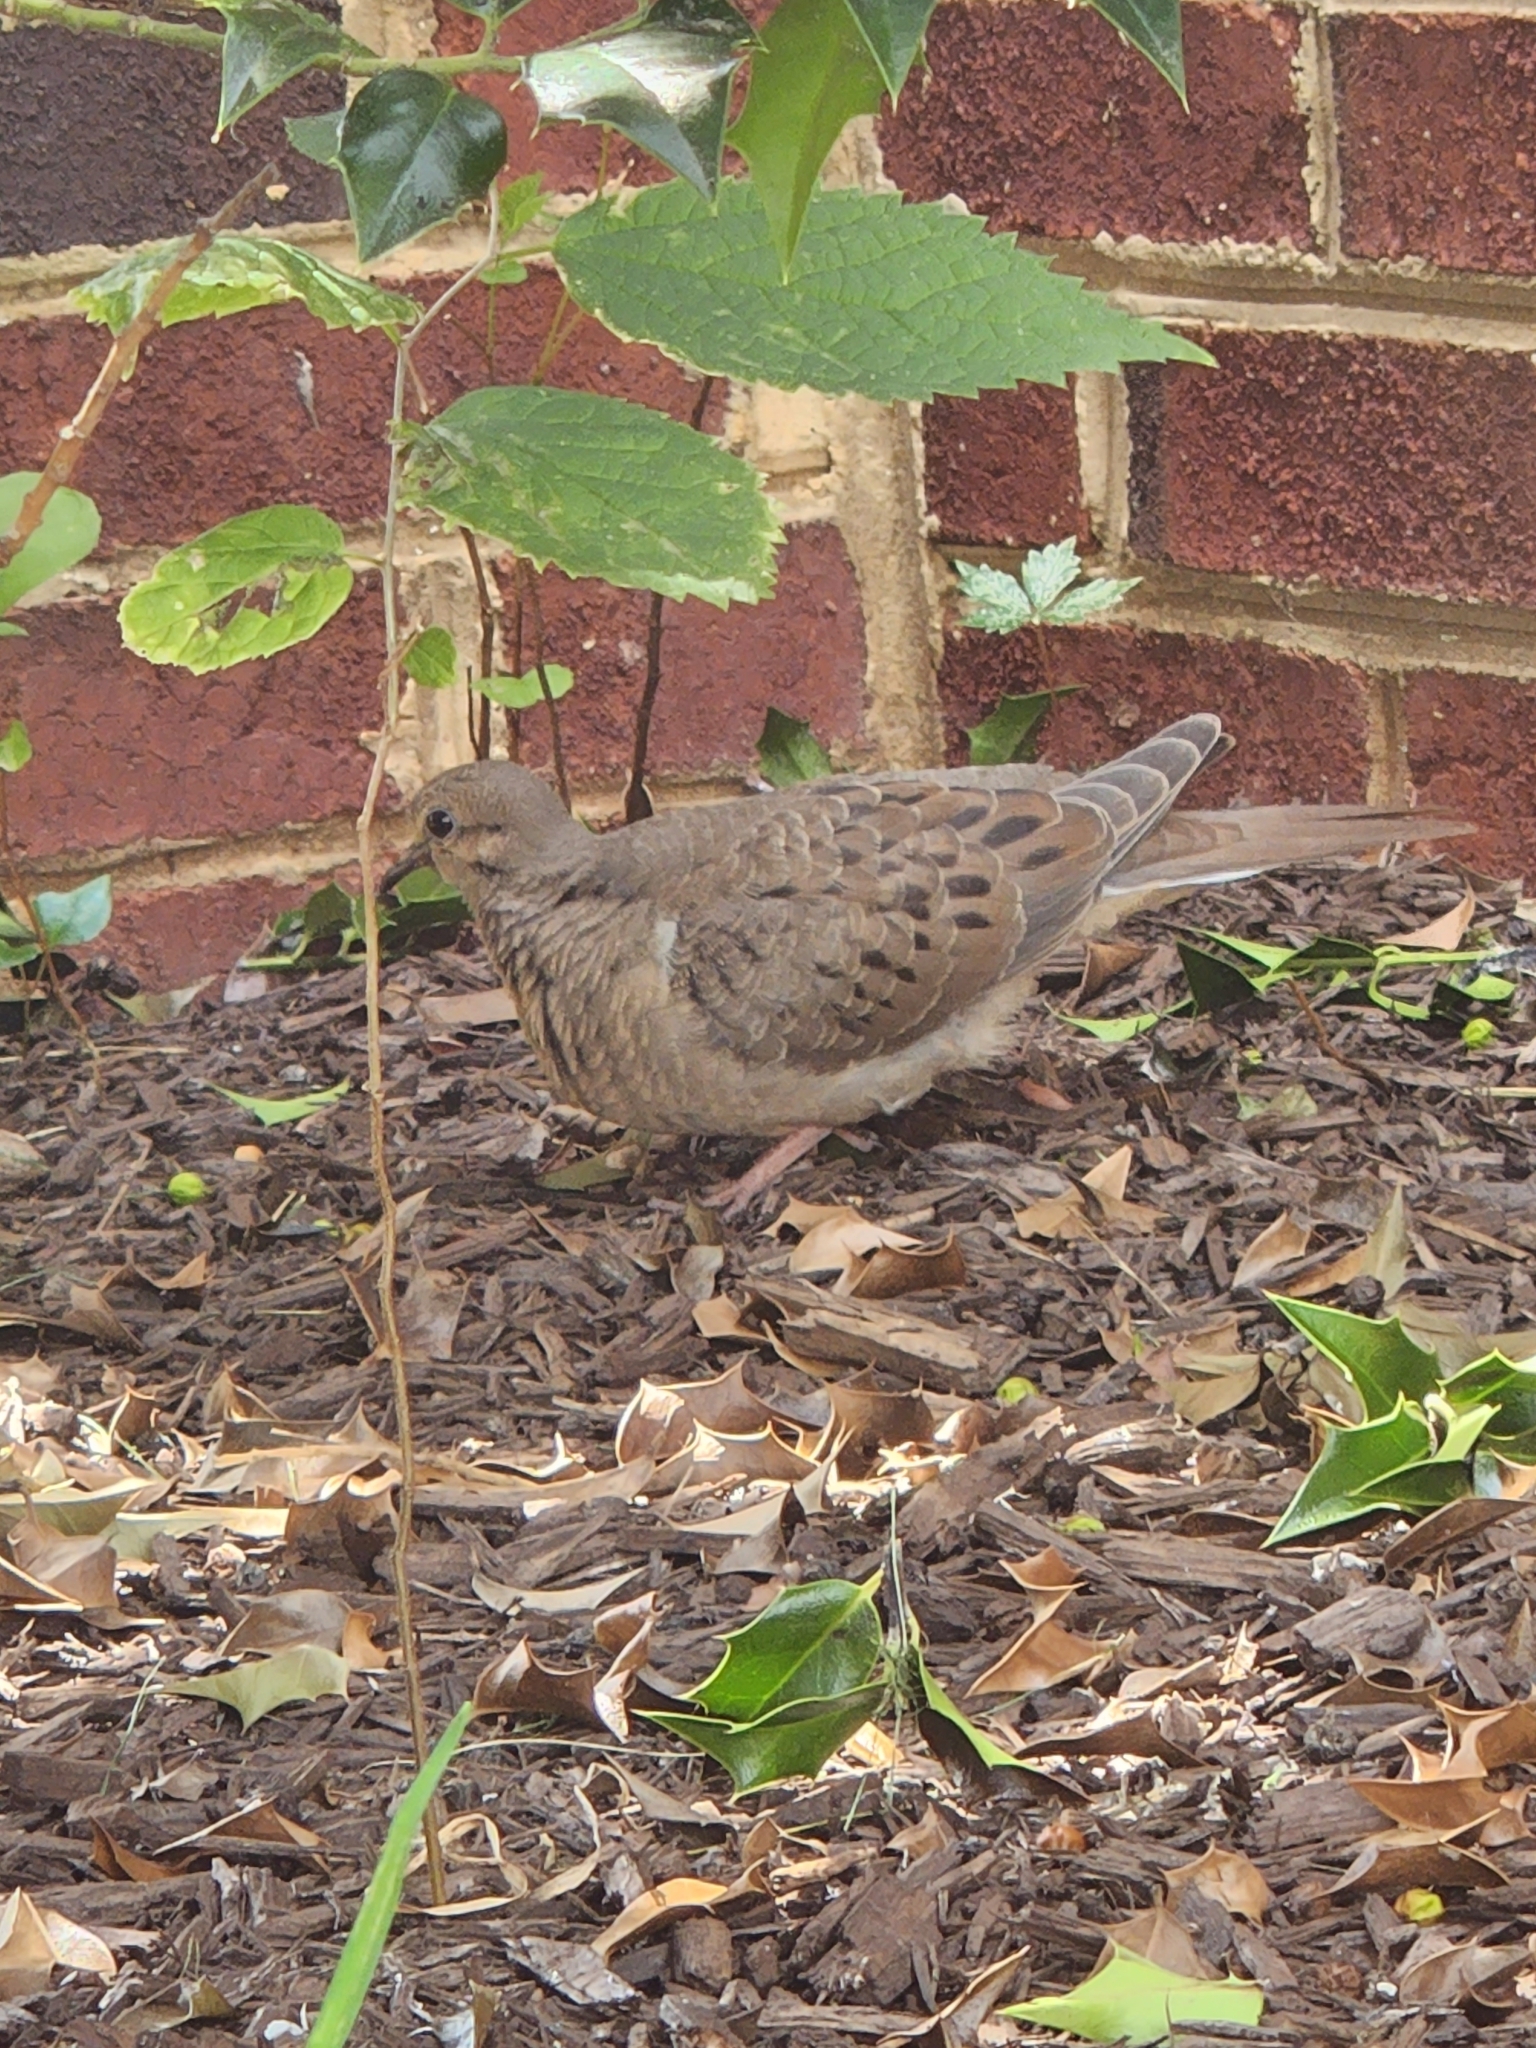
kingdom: Animalia
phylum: Chordata
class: Aves
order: Columbiformes
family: Columbidae
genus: Zenaida
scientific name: Zenaida macroura
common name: Mourning dove
